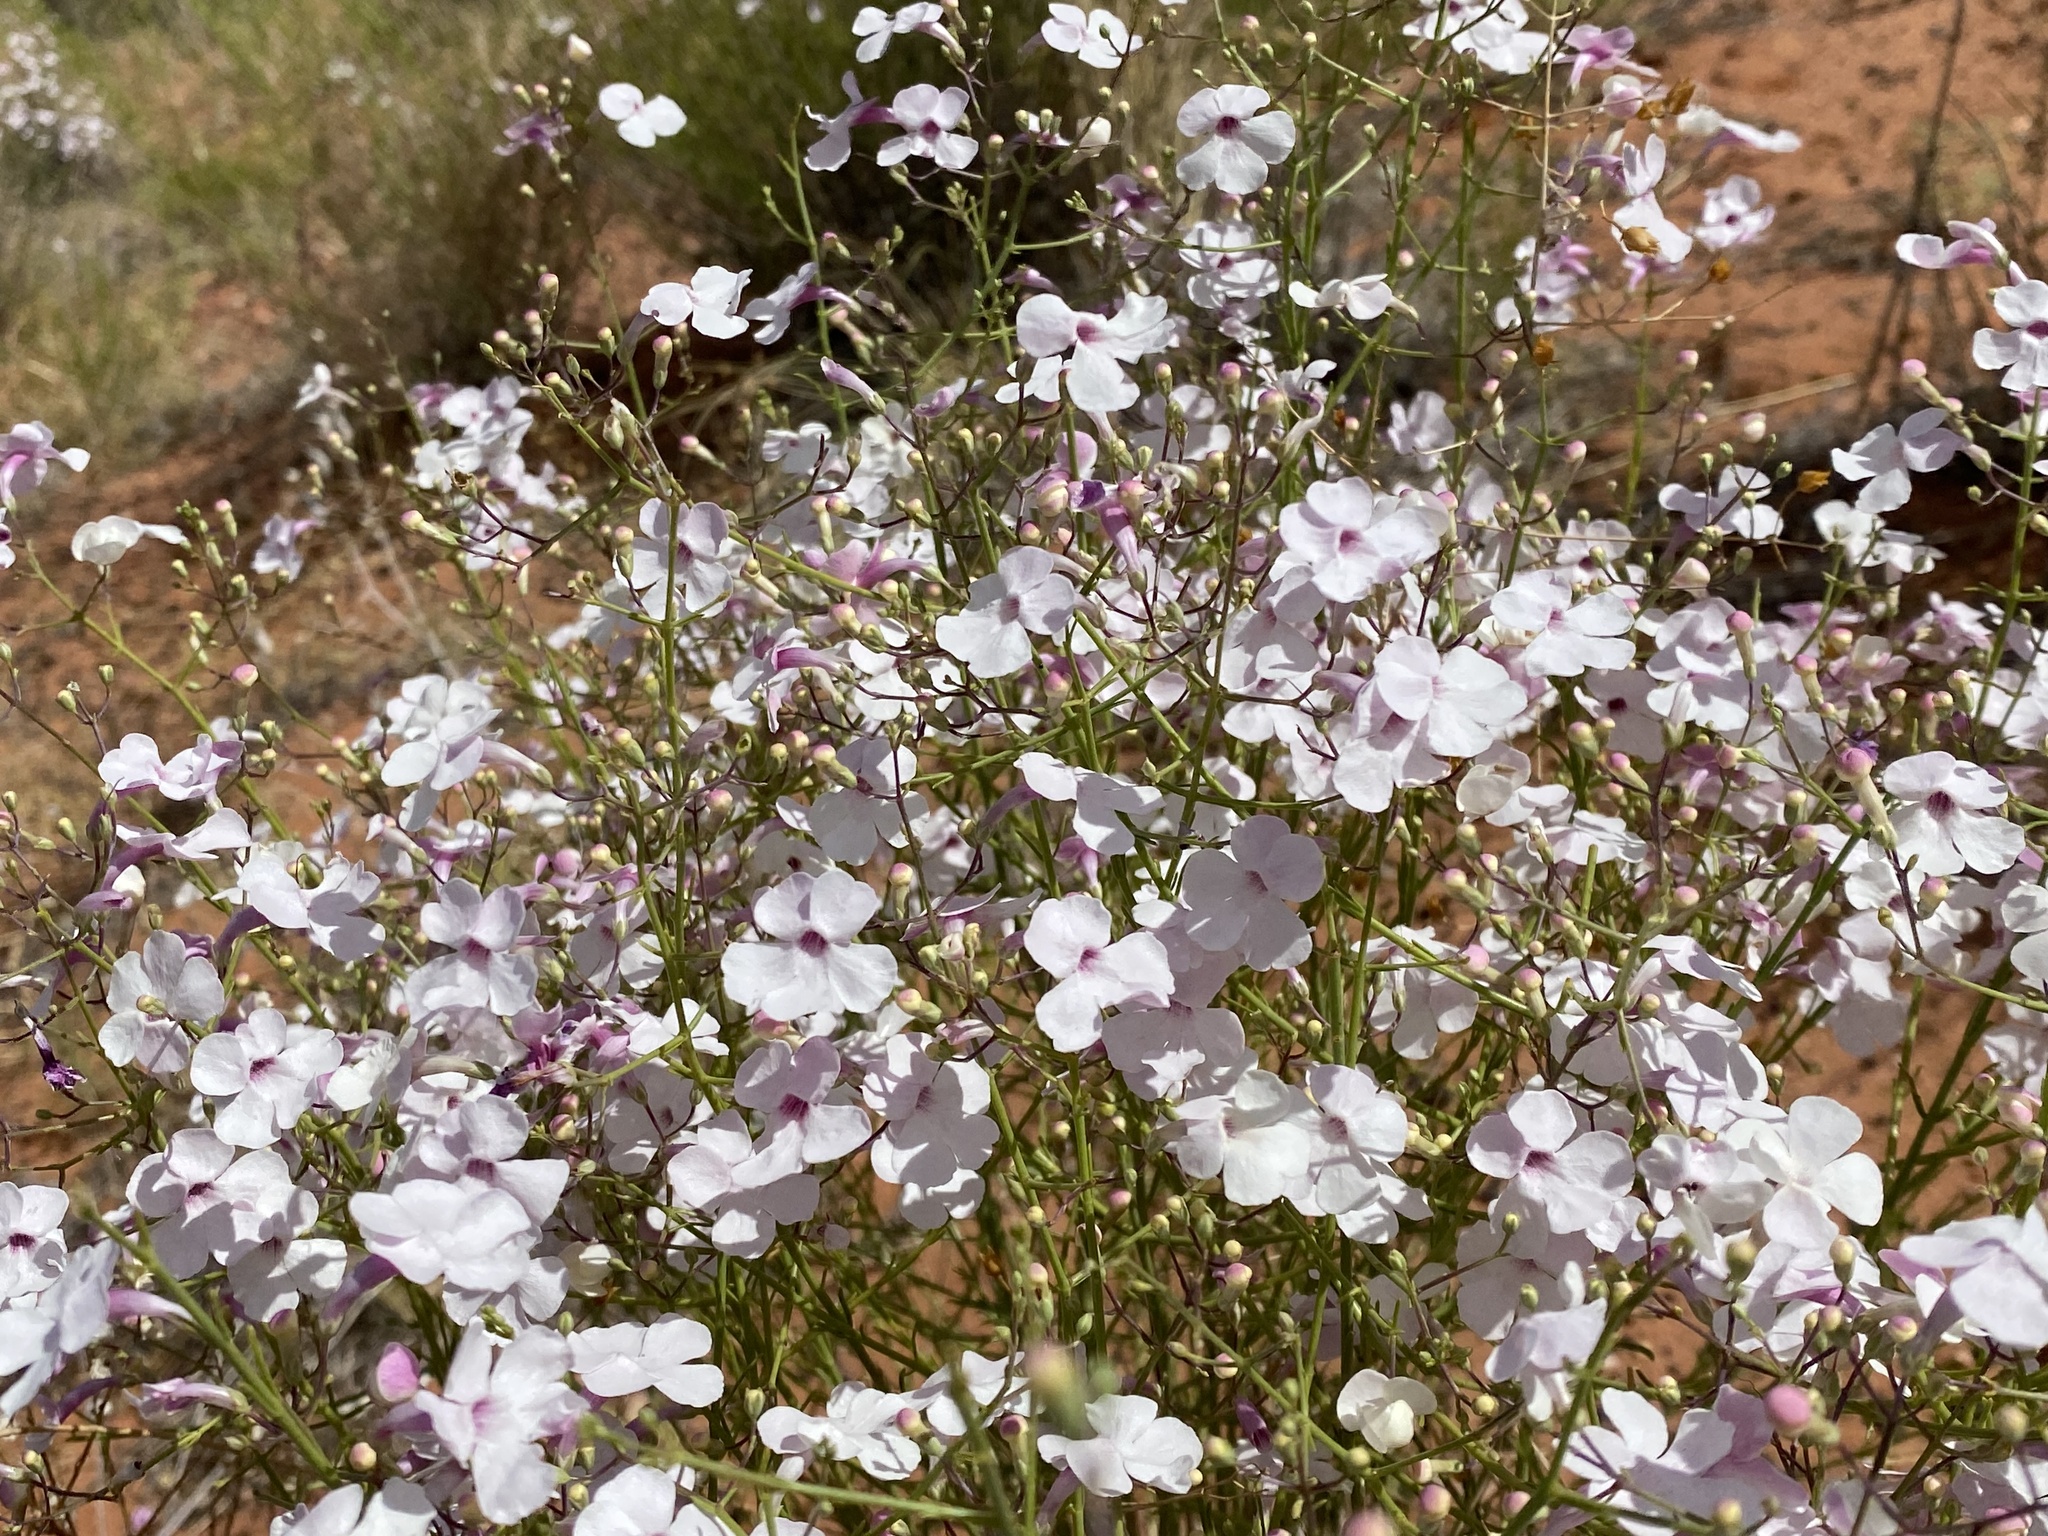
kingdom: Plantae
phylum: Tracheophyta
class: Magnoliopsida
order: Lamiales
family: Plantaginaceae
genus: Penstemon
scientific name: Penstemon ambiguus
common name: Bush penstemon
